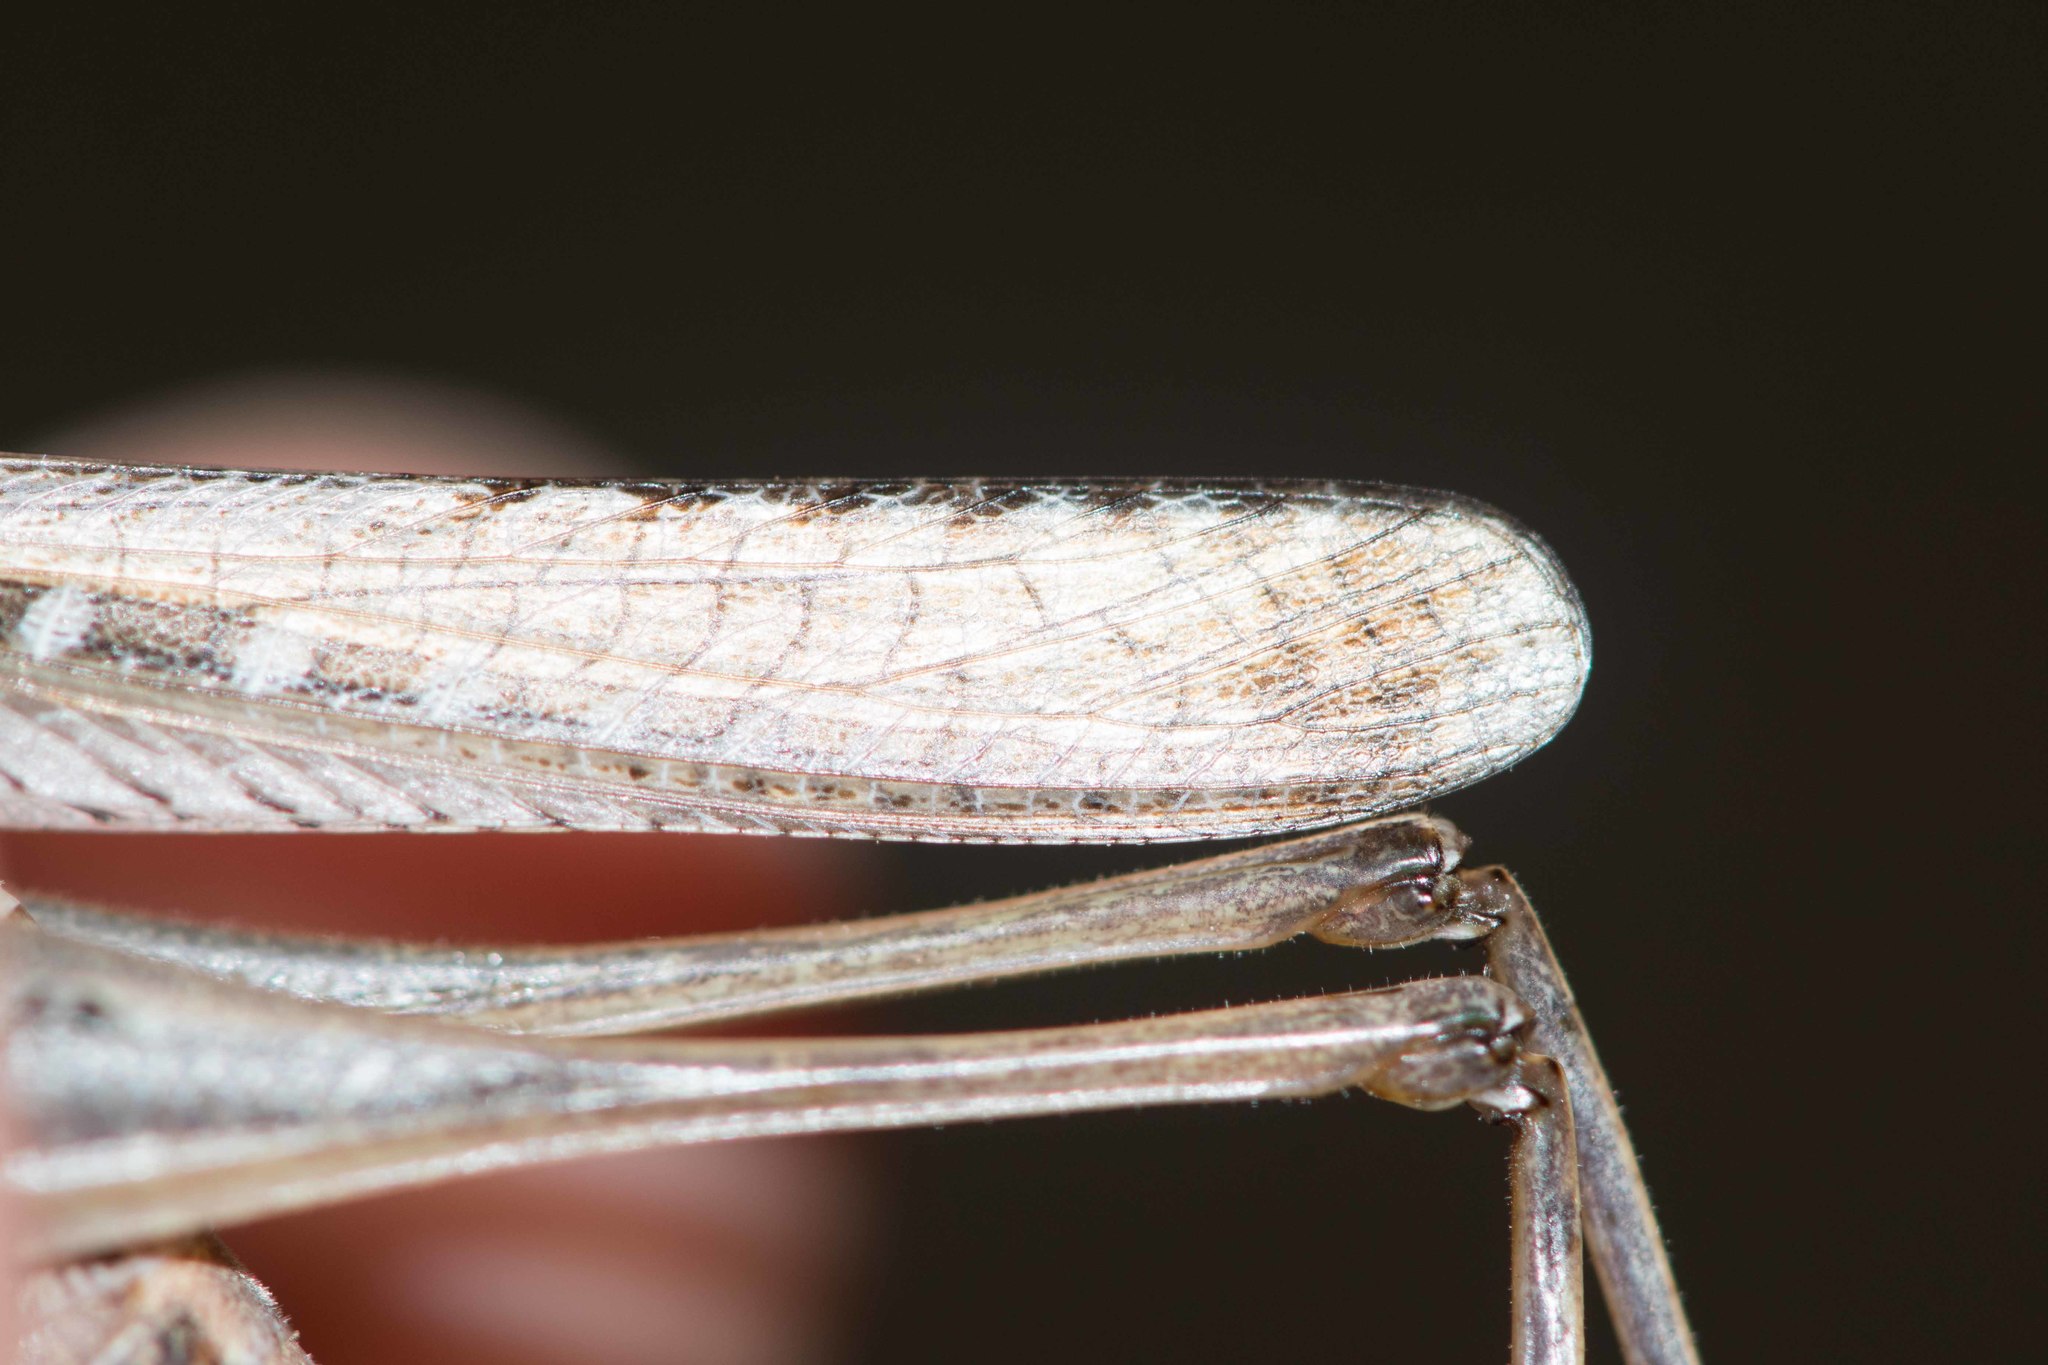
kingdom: Animalia
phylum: Arthropoda
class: Insecta
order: Orthoptera
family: Tettigoniidae
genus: Platycleis
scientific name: Platycleis sabulosa
